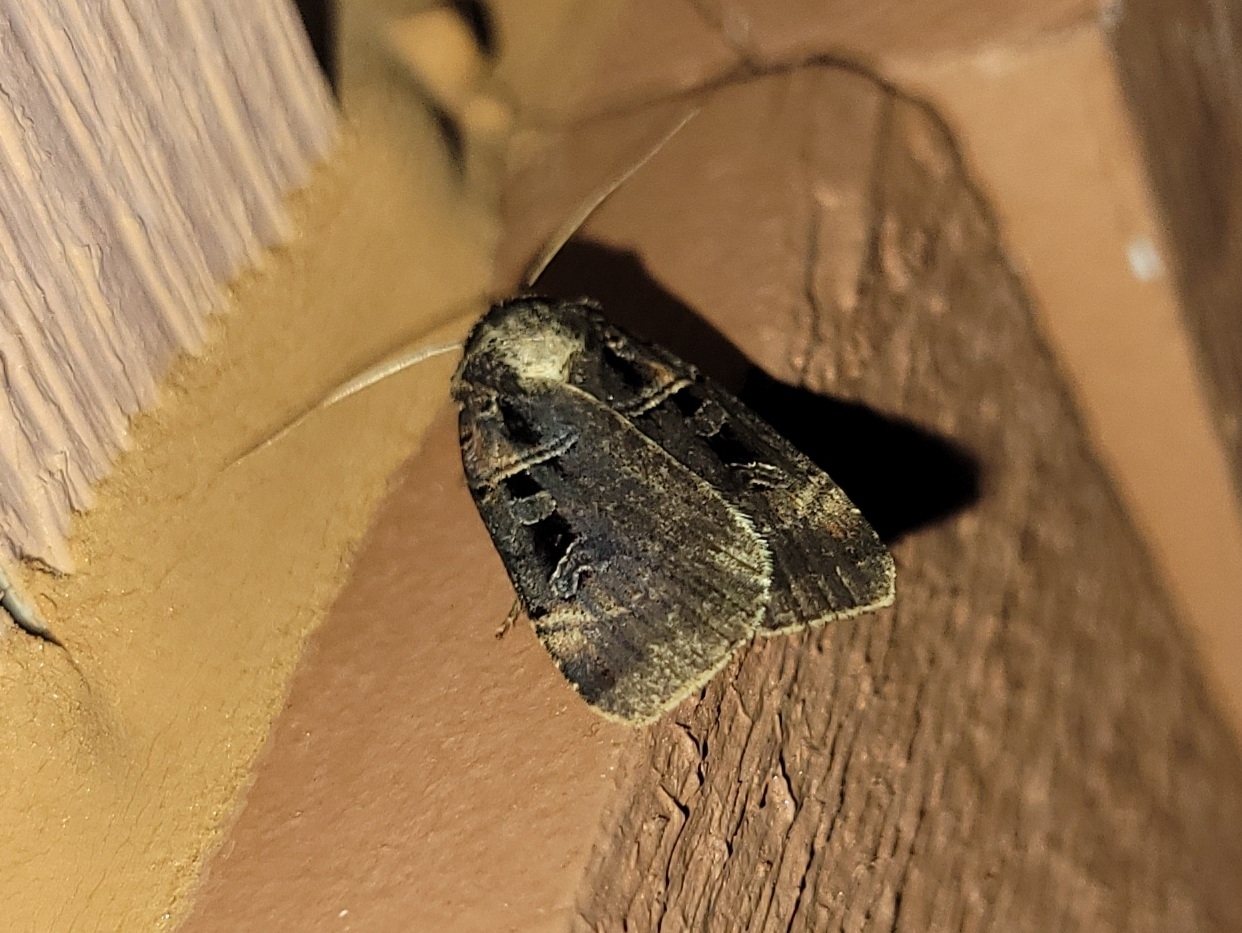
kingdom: Animalia
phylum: Arthropoda
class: Insecta
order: Lepidoptera
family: Noctuidae
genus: Pseudohermonassa
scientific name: Pseudohermonassa bicarnea
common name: Pink spotted dart
